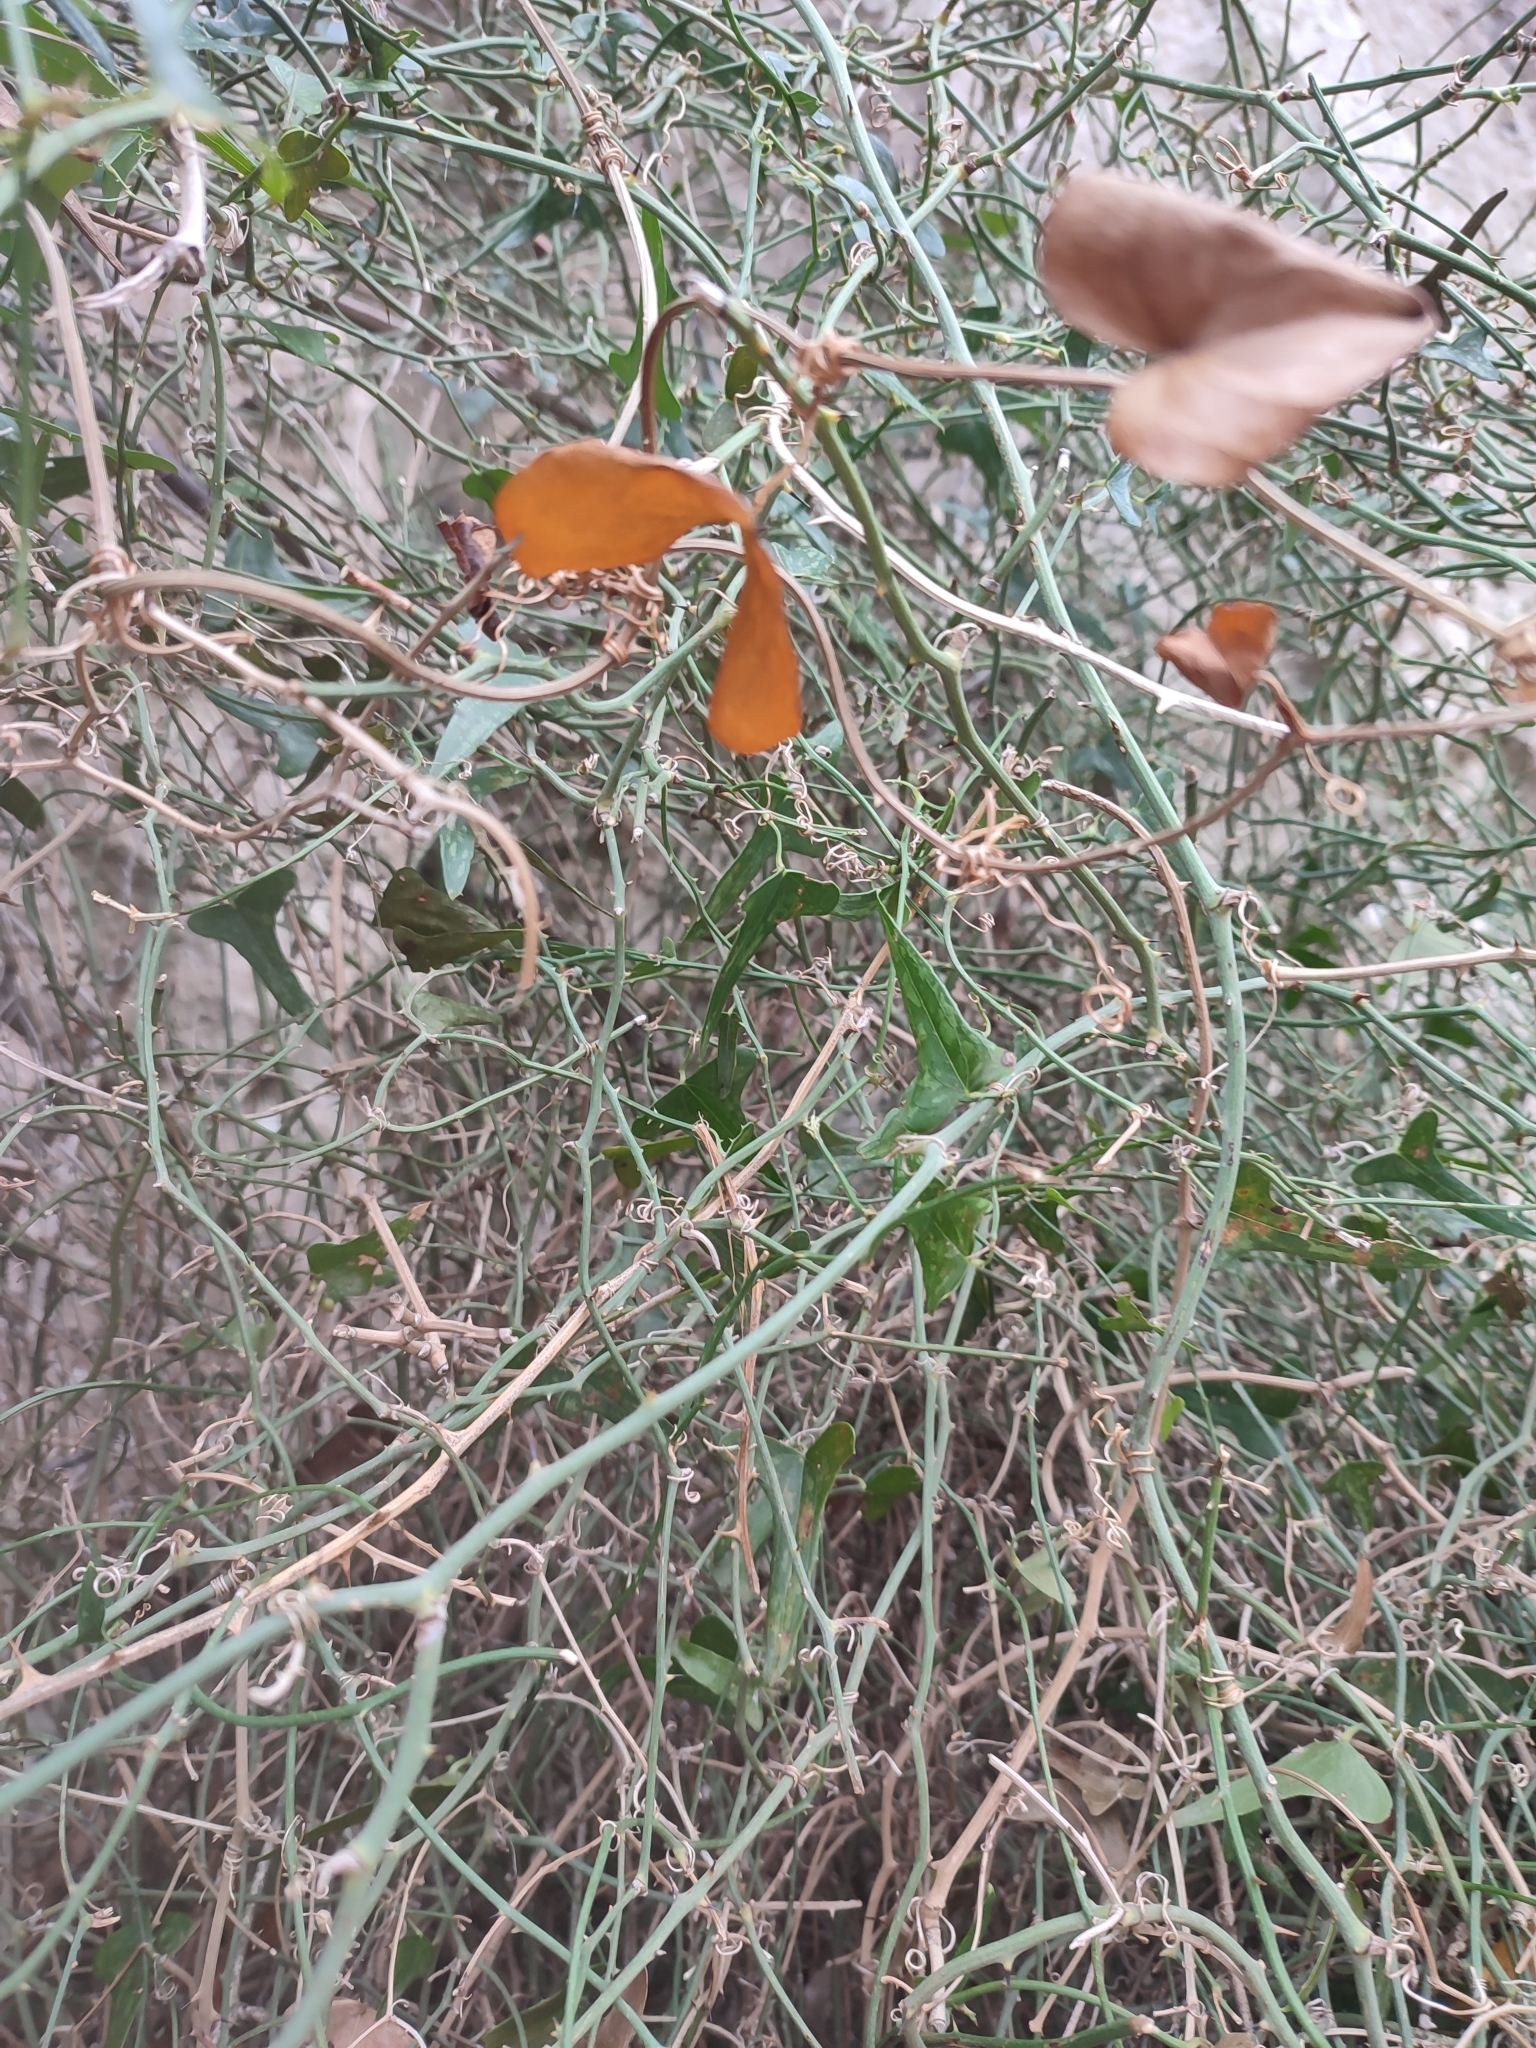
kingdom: Plantae
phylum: Tracheophyta
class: Liliopsida
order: Liliales
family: Smilacaceae
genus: Smilax
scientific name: Smilax aspera
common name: Common smilax
